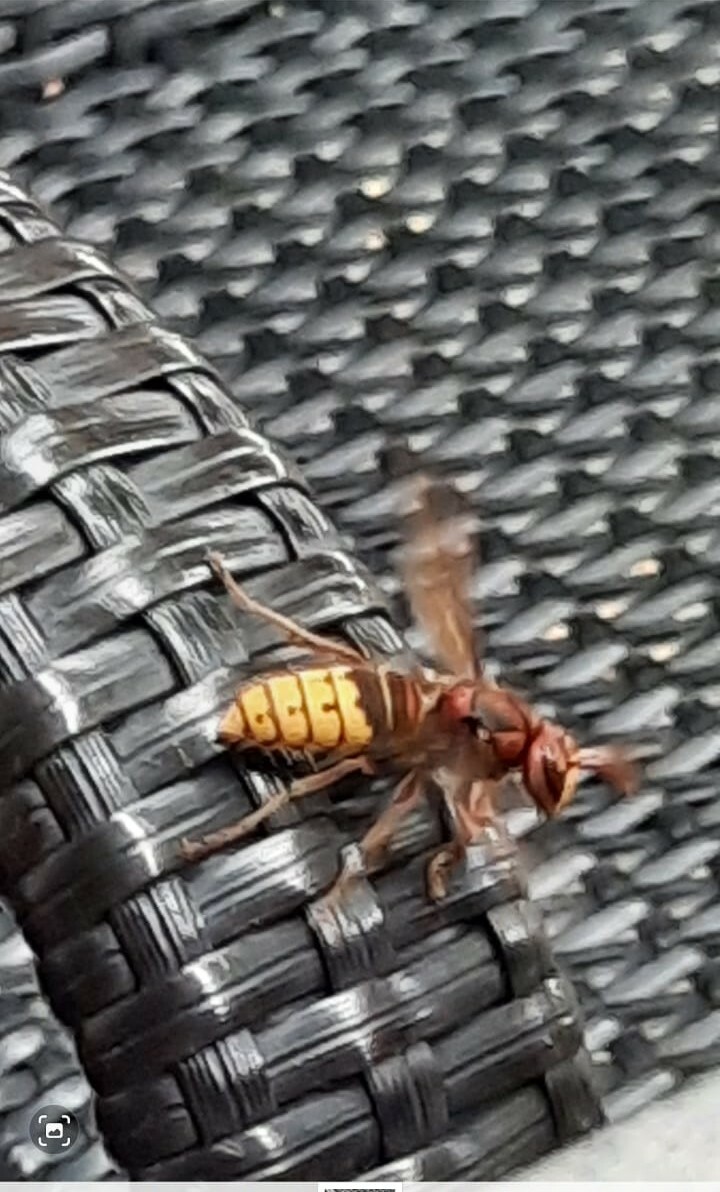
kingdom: Animalia
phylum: Arthropoda
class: Insecta
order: Hymenoptera
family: Vespidae
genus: Vespa
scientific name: Vespa crabro
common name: Hornet
